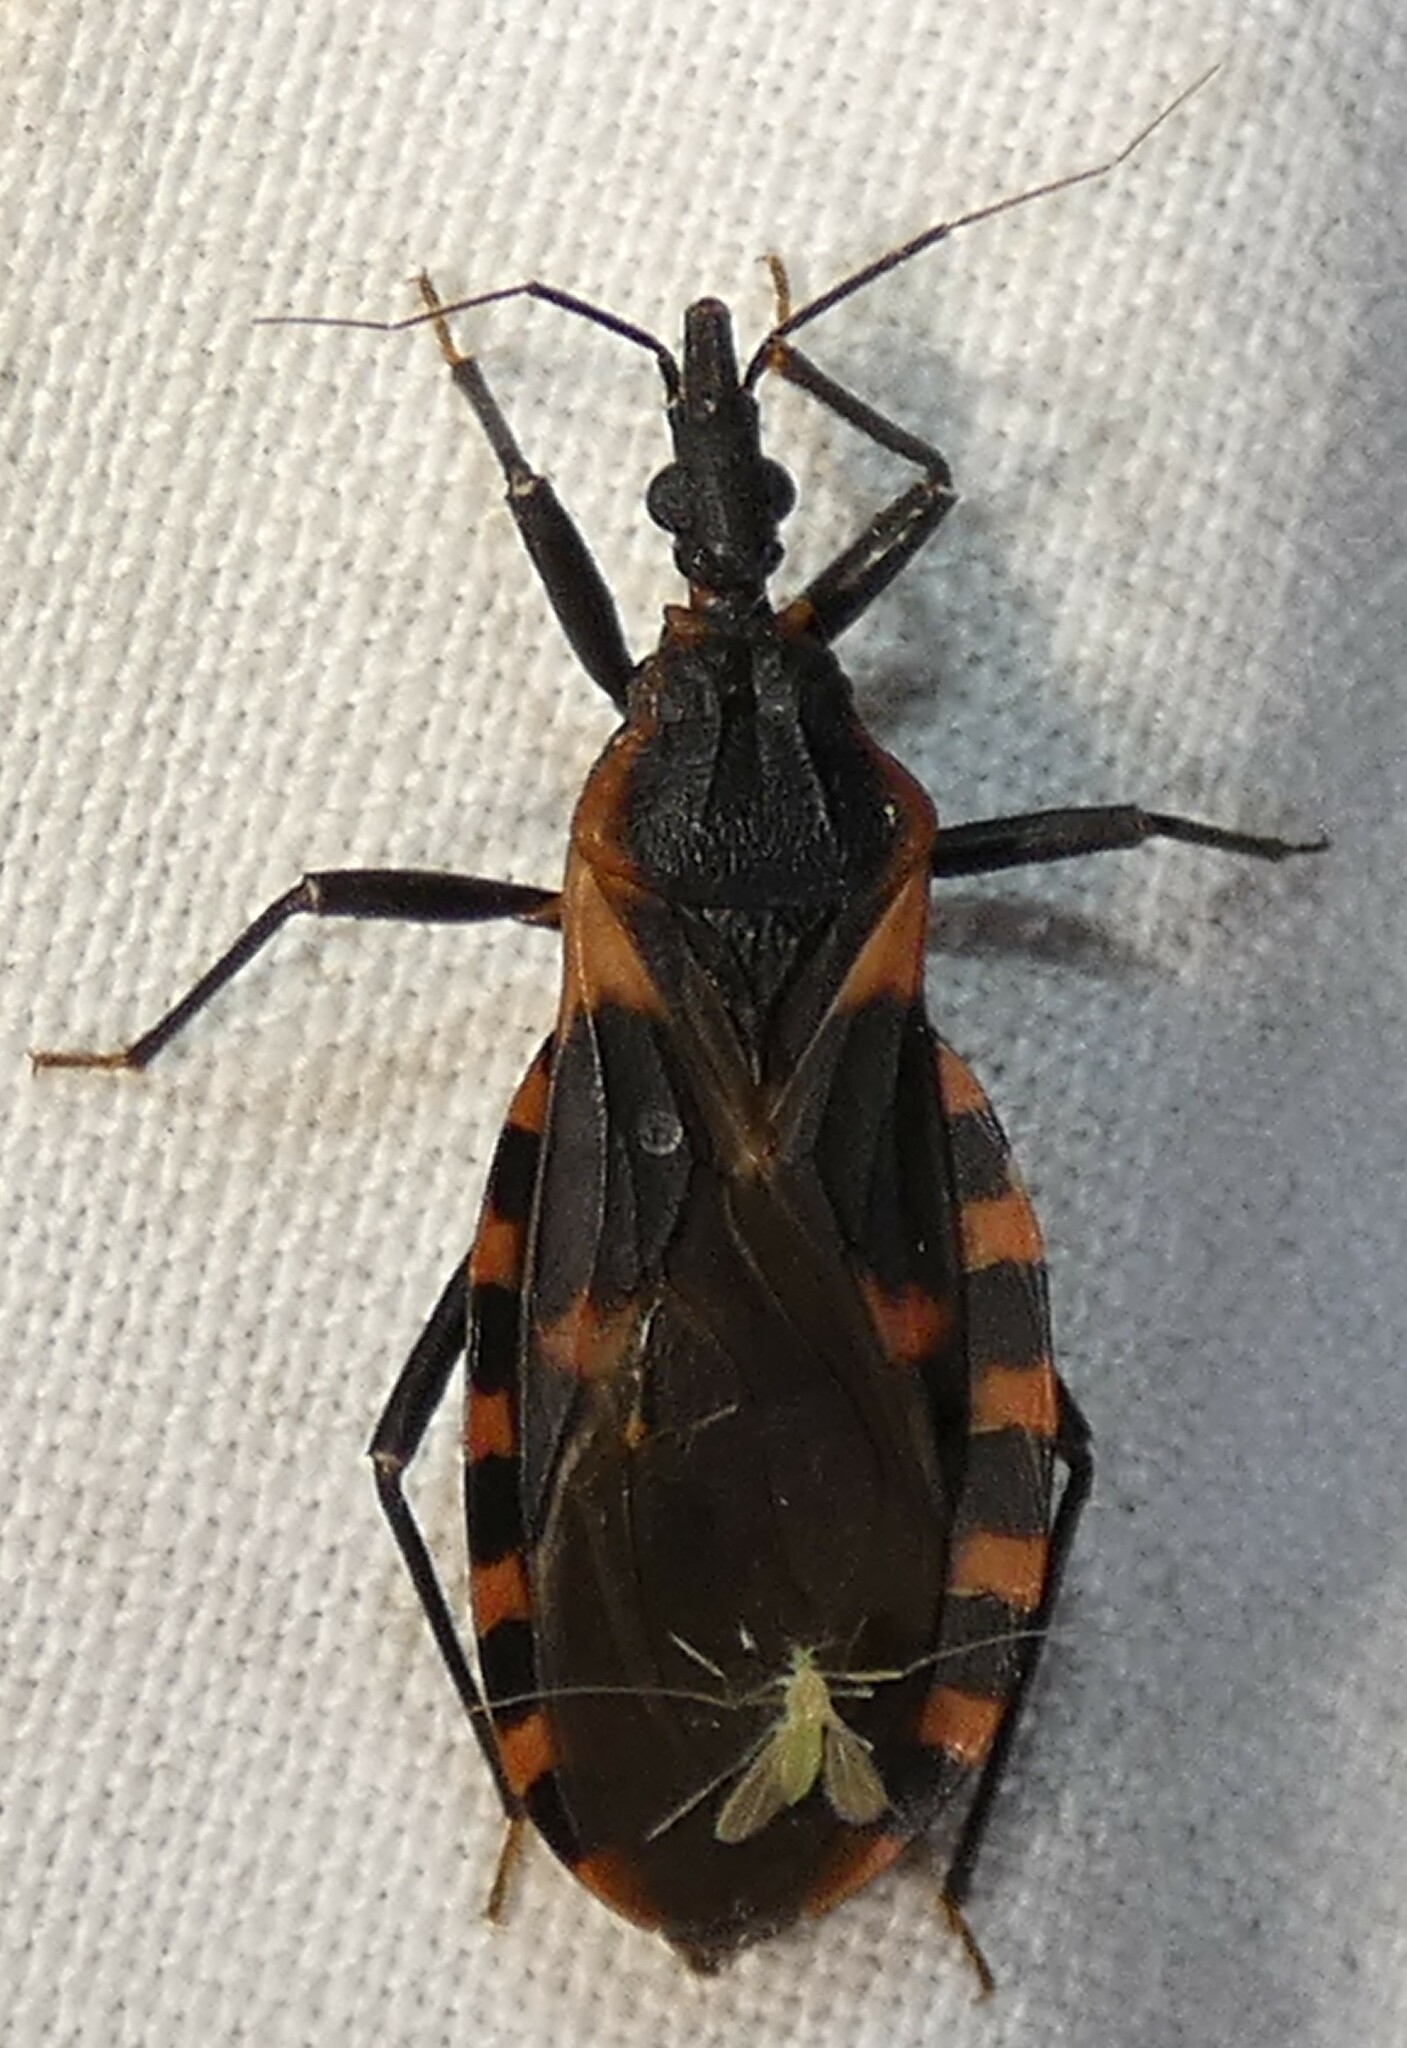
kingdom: Animalia
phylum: Arthropoda
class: Insecta
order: Hemiptera
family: Reduviidae
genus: Triatoma
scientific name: Triatoma sanguisuga
